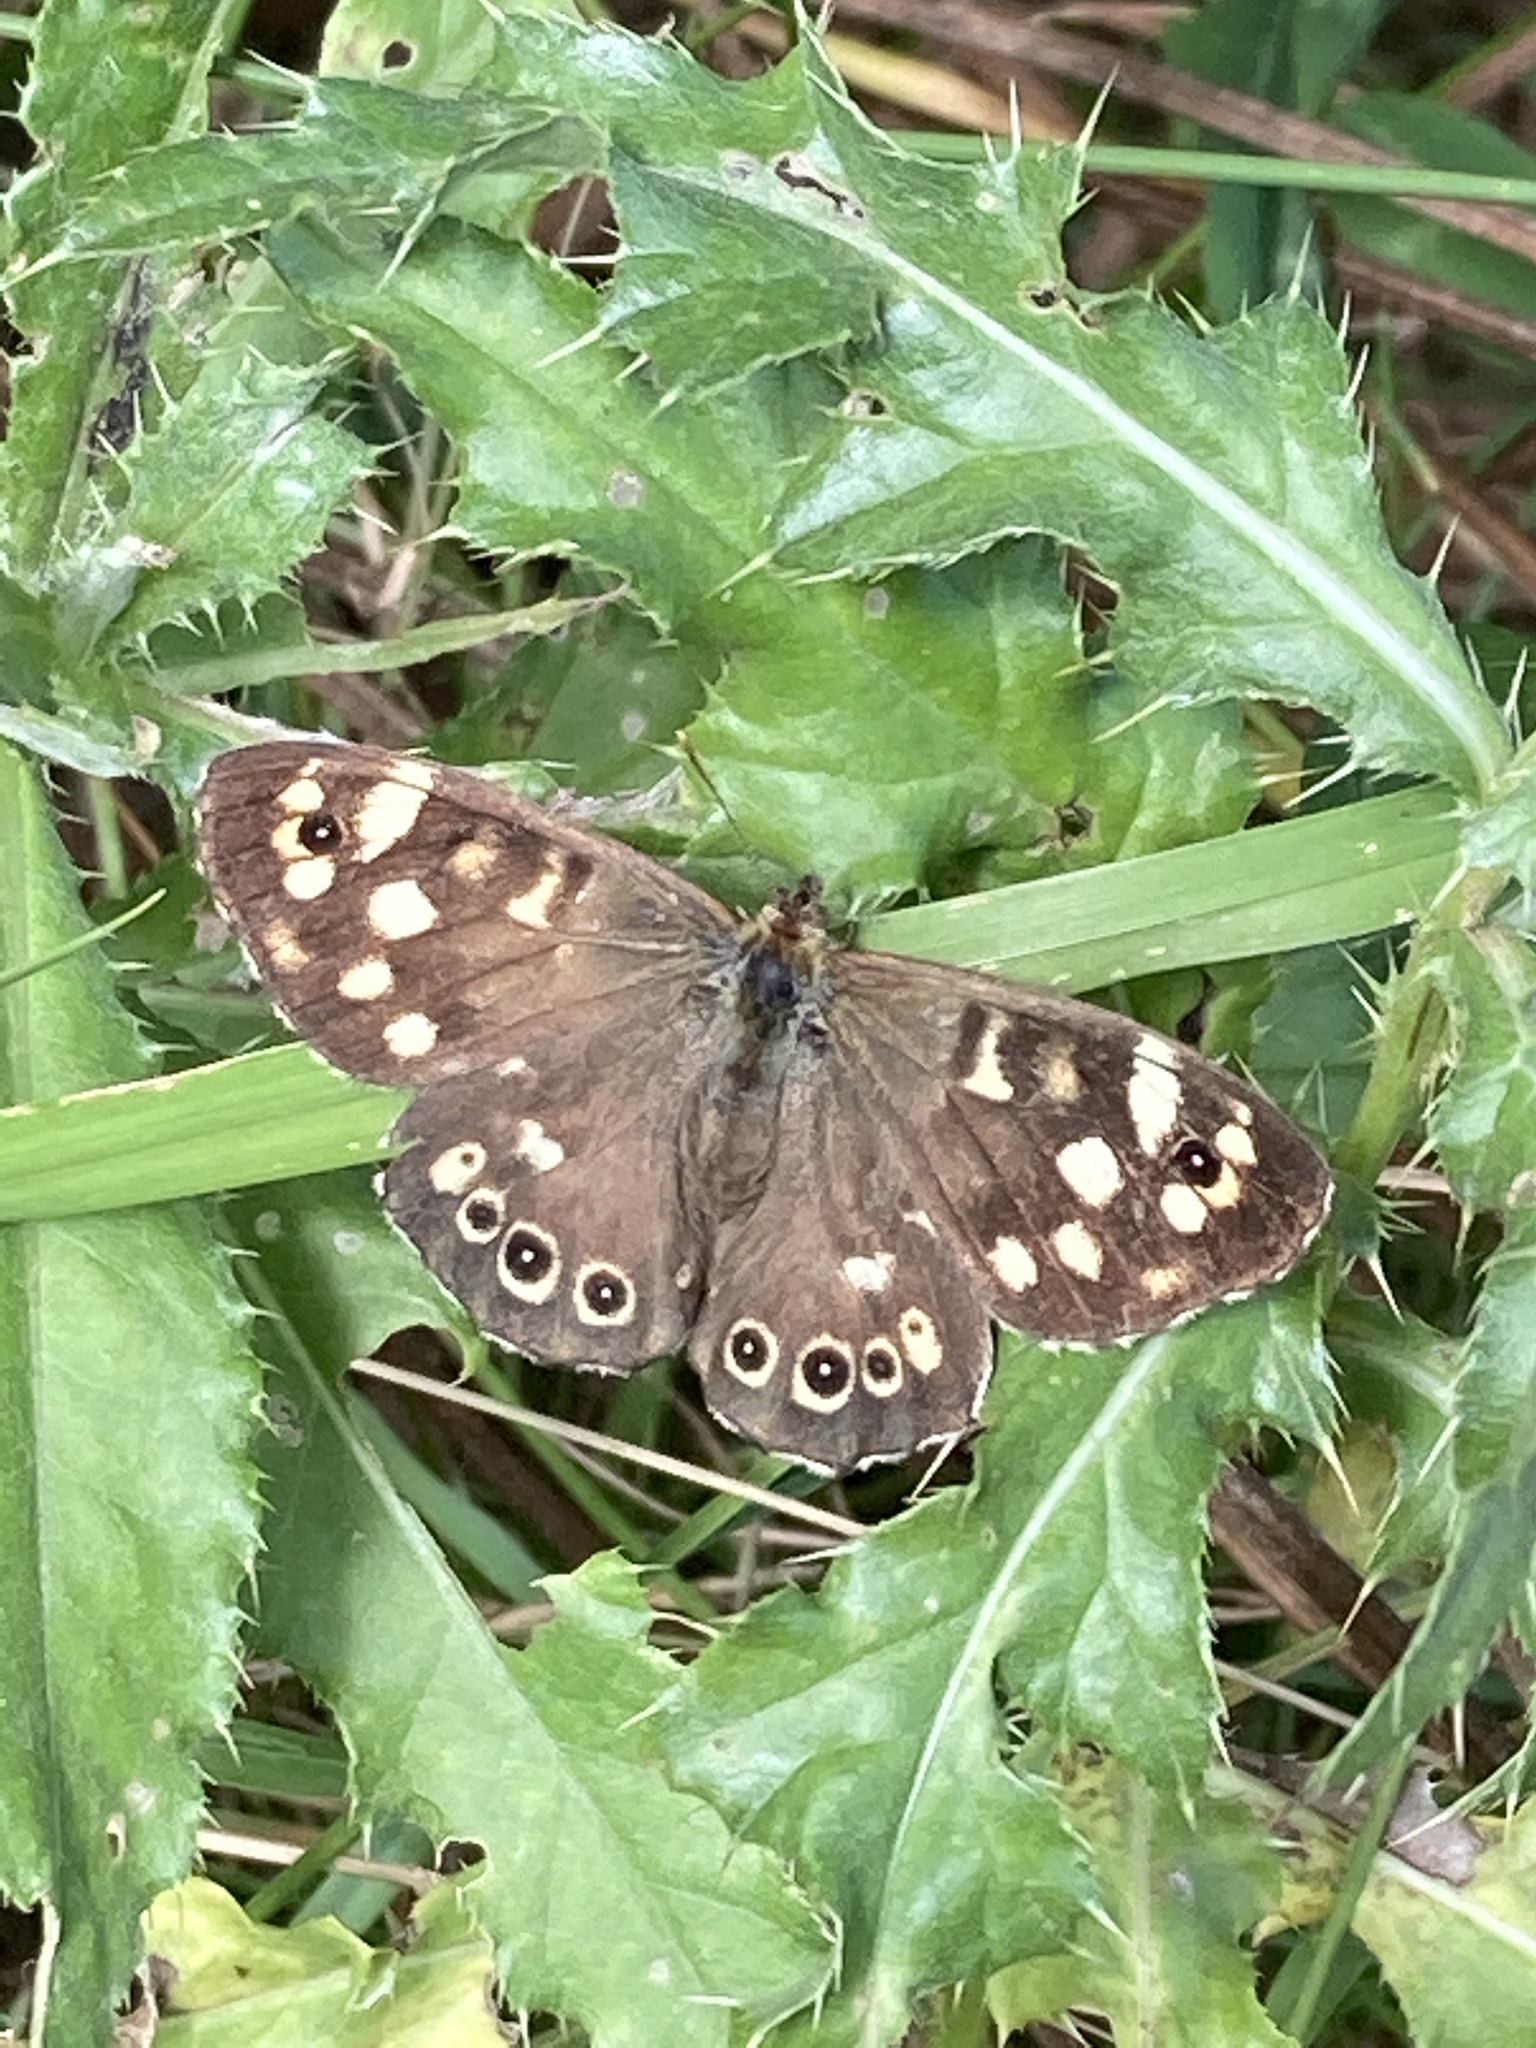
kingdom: Animalia
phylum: Arthropoda
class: Insecta
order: Lepidoptera
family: Nymphalidae
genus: Pararge
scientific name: Pararge aegeria
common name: Speckled wood
